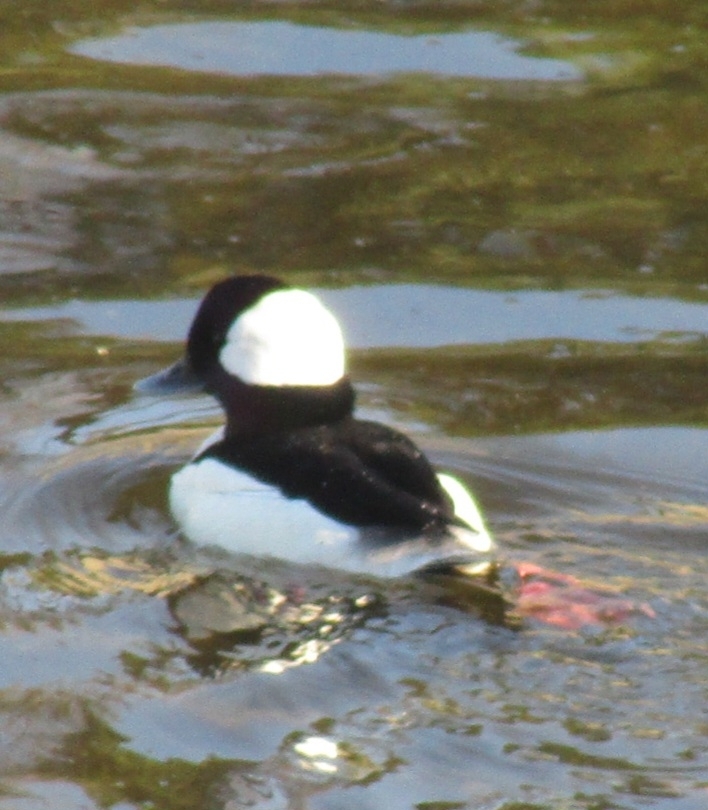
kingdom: Animalia
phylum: Chordata
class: Aves
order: Anseriformes
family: Anatidae
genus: Bucephala
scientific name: Bucephala albeola
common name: Bufflehead
